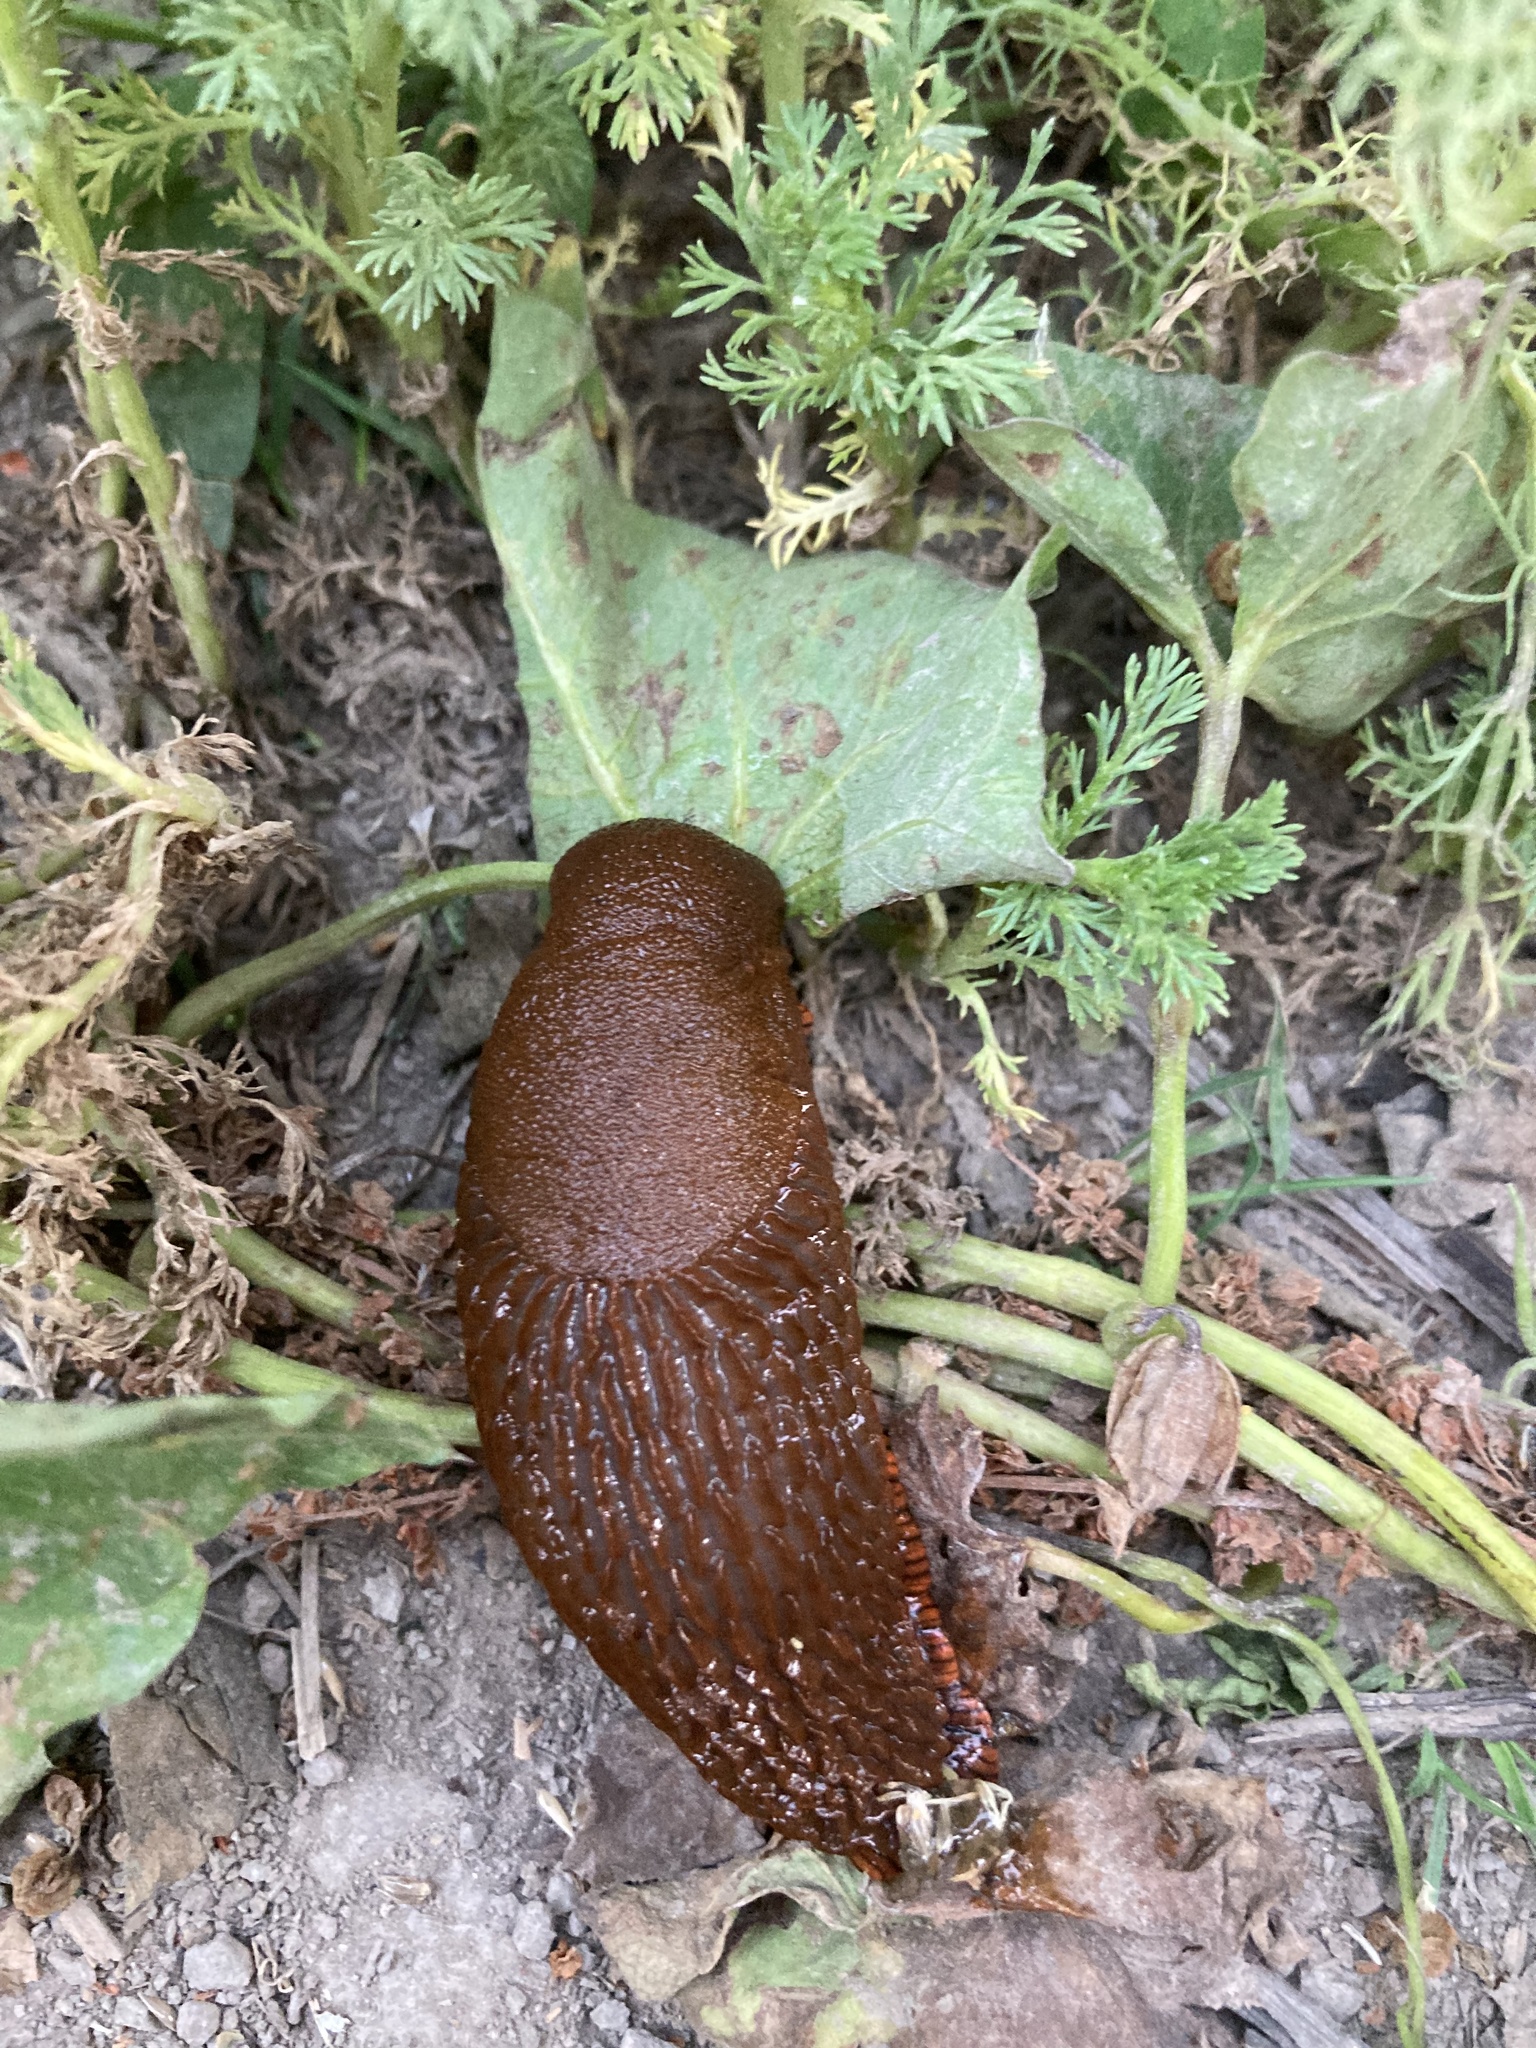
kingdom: Animalia
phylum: Mollusca
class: Gastropoda
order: Stylommatophora
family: Arionidae
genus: Arion
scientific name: Arion rufus
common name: Chocolate arion
